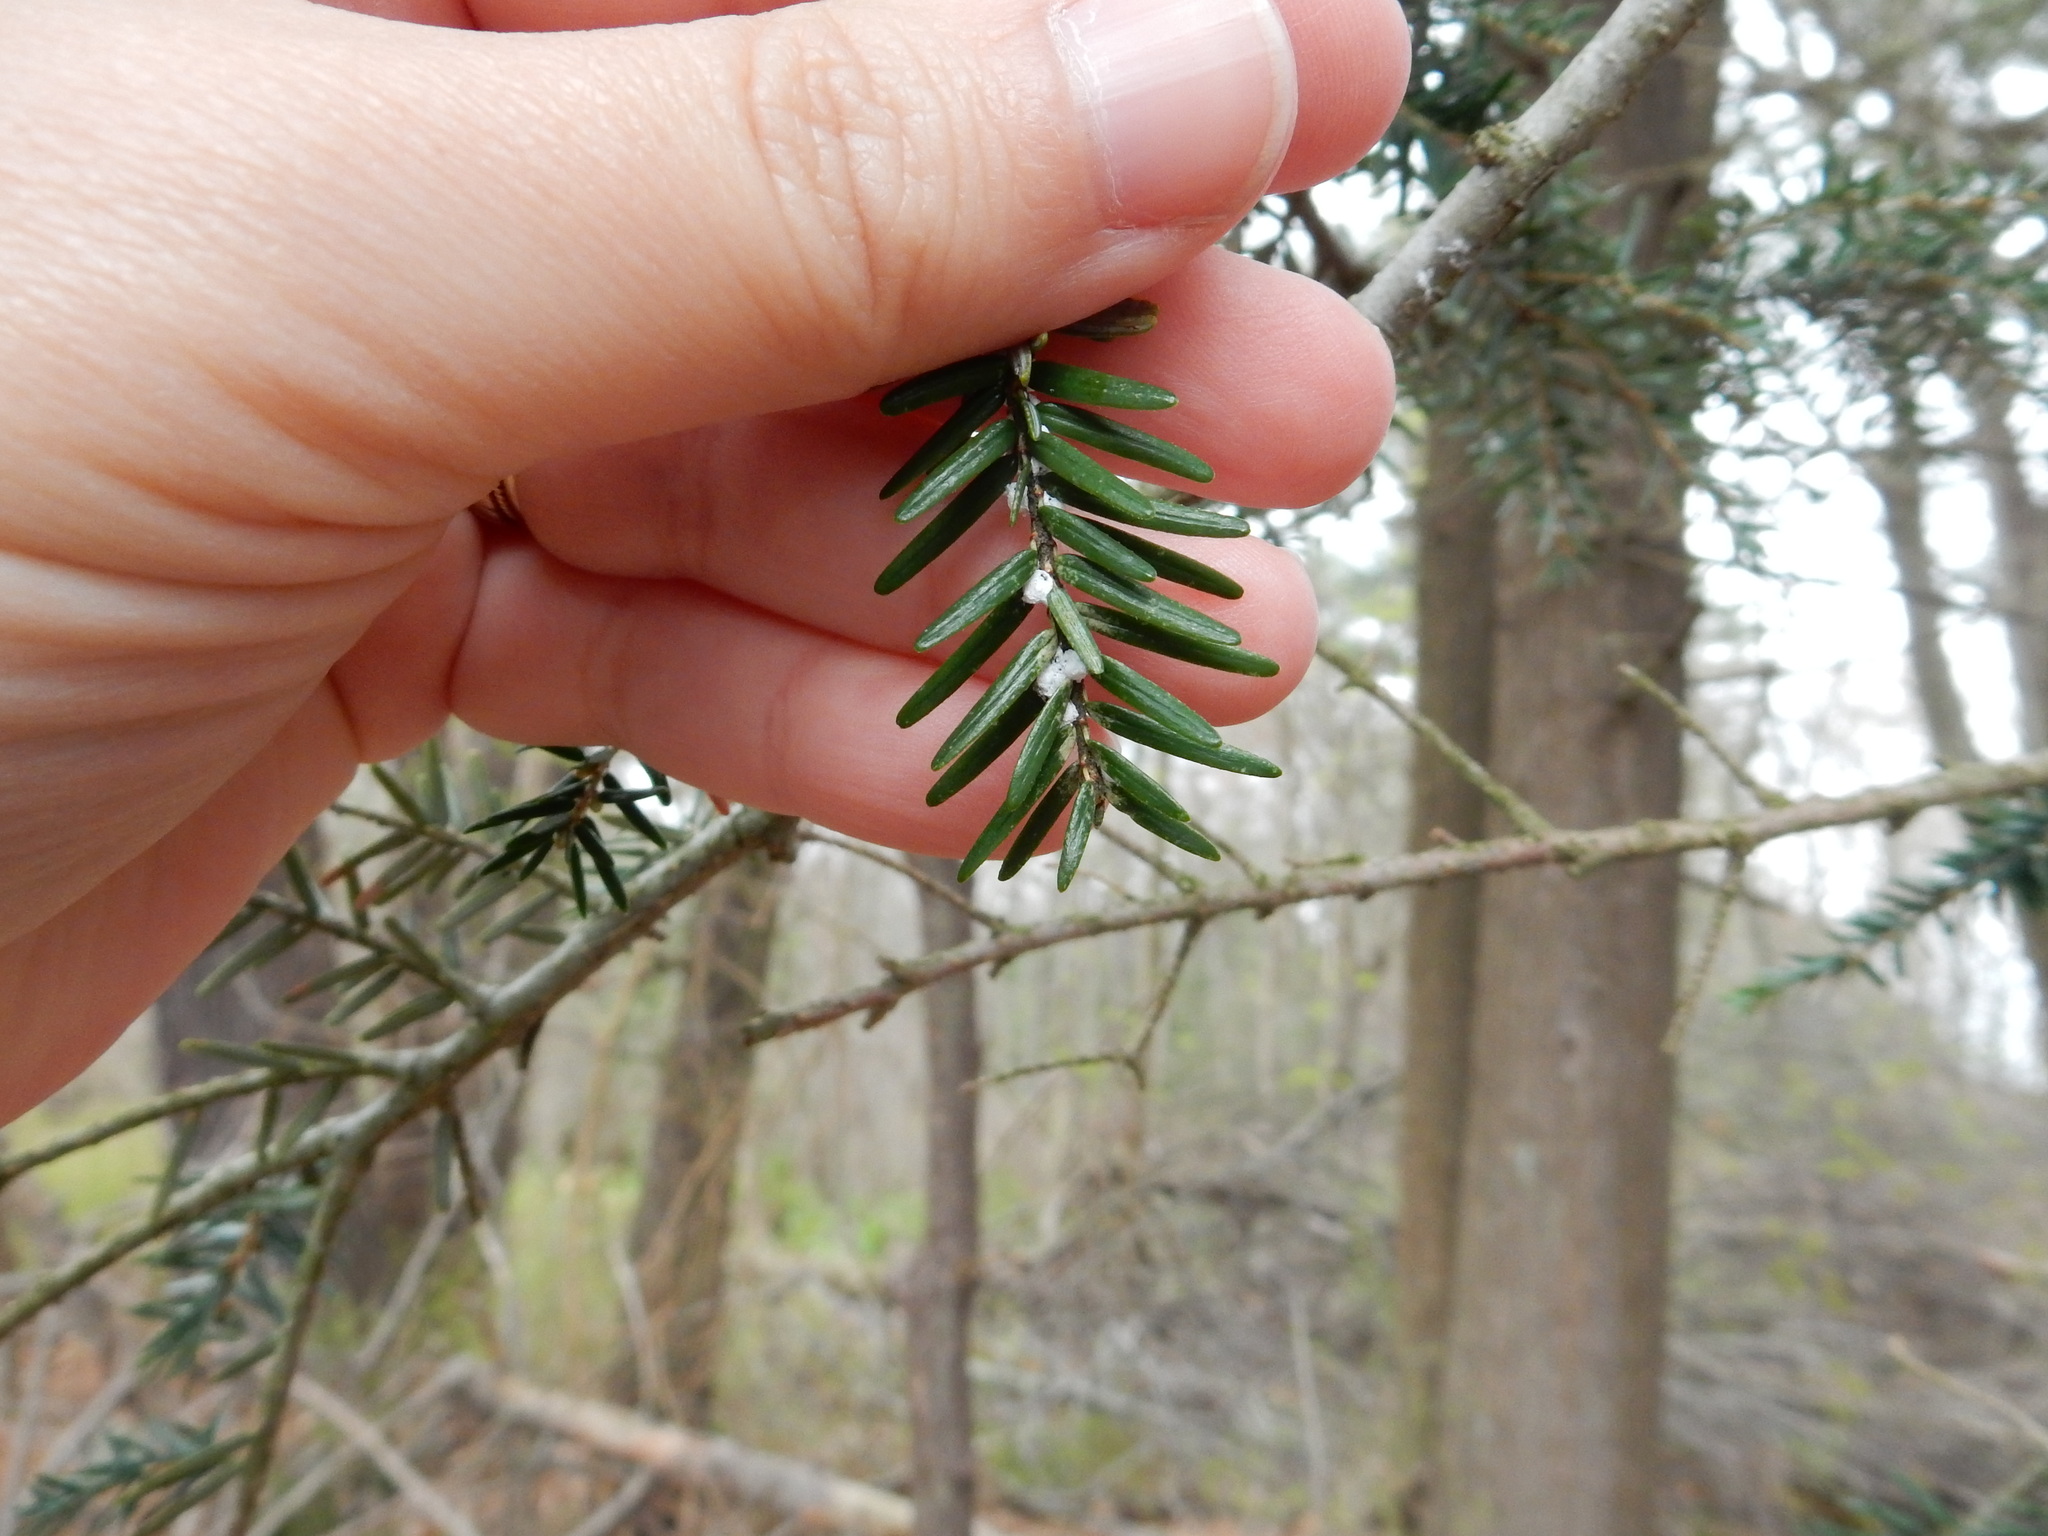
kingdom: Animalia
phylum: Arthropoda
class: Insecta
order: Hemiptera
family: Adelgidae
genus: Adelges
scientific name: Adelges tsugae
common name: Hemlock woolly adelgid
